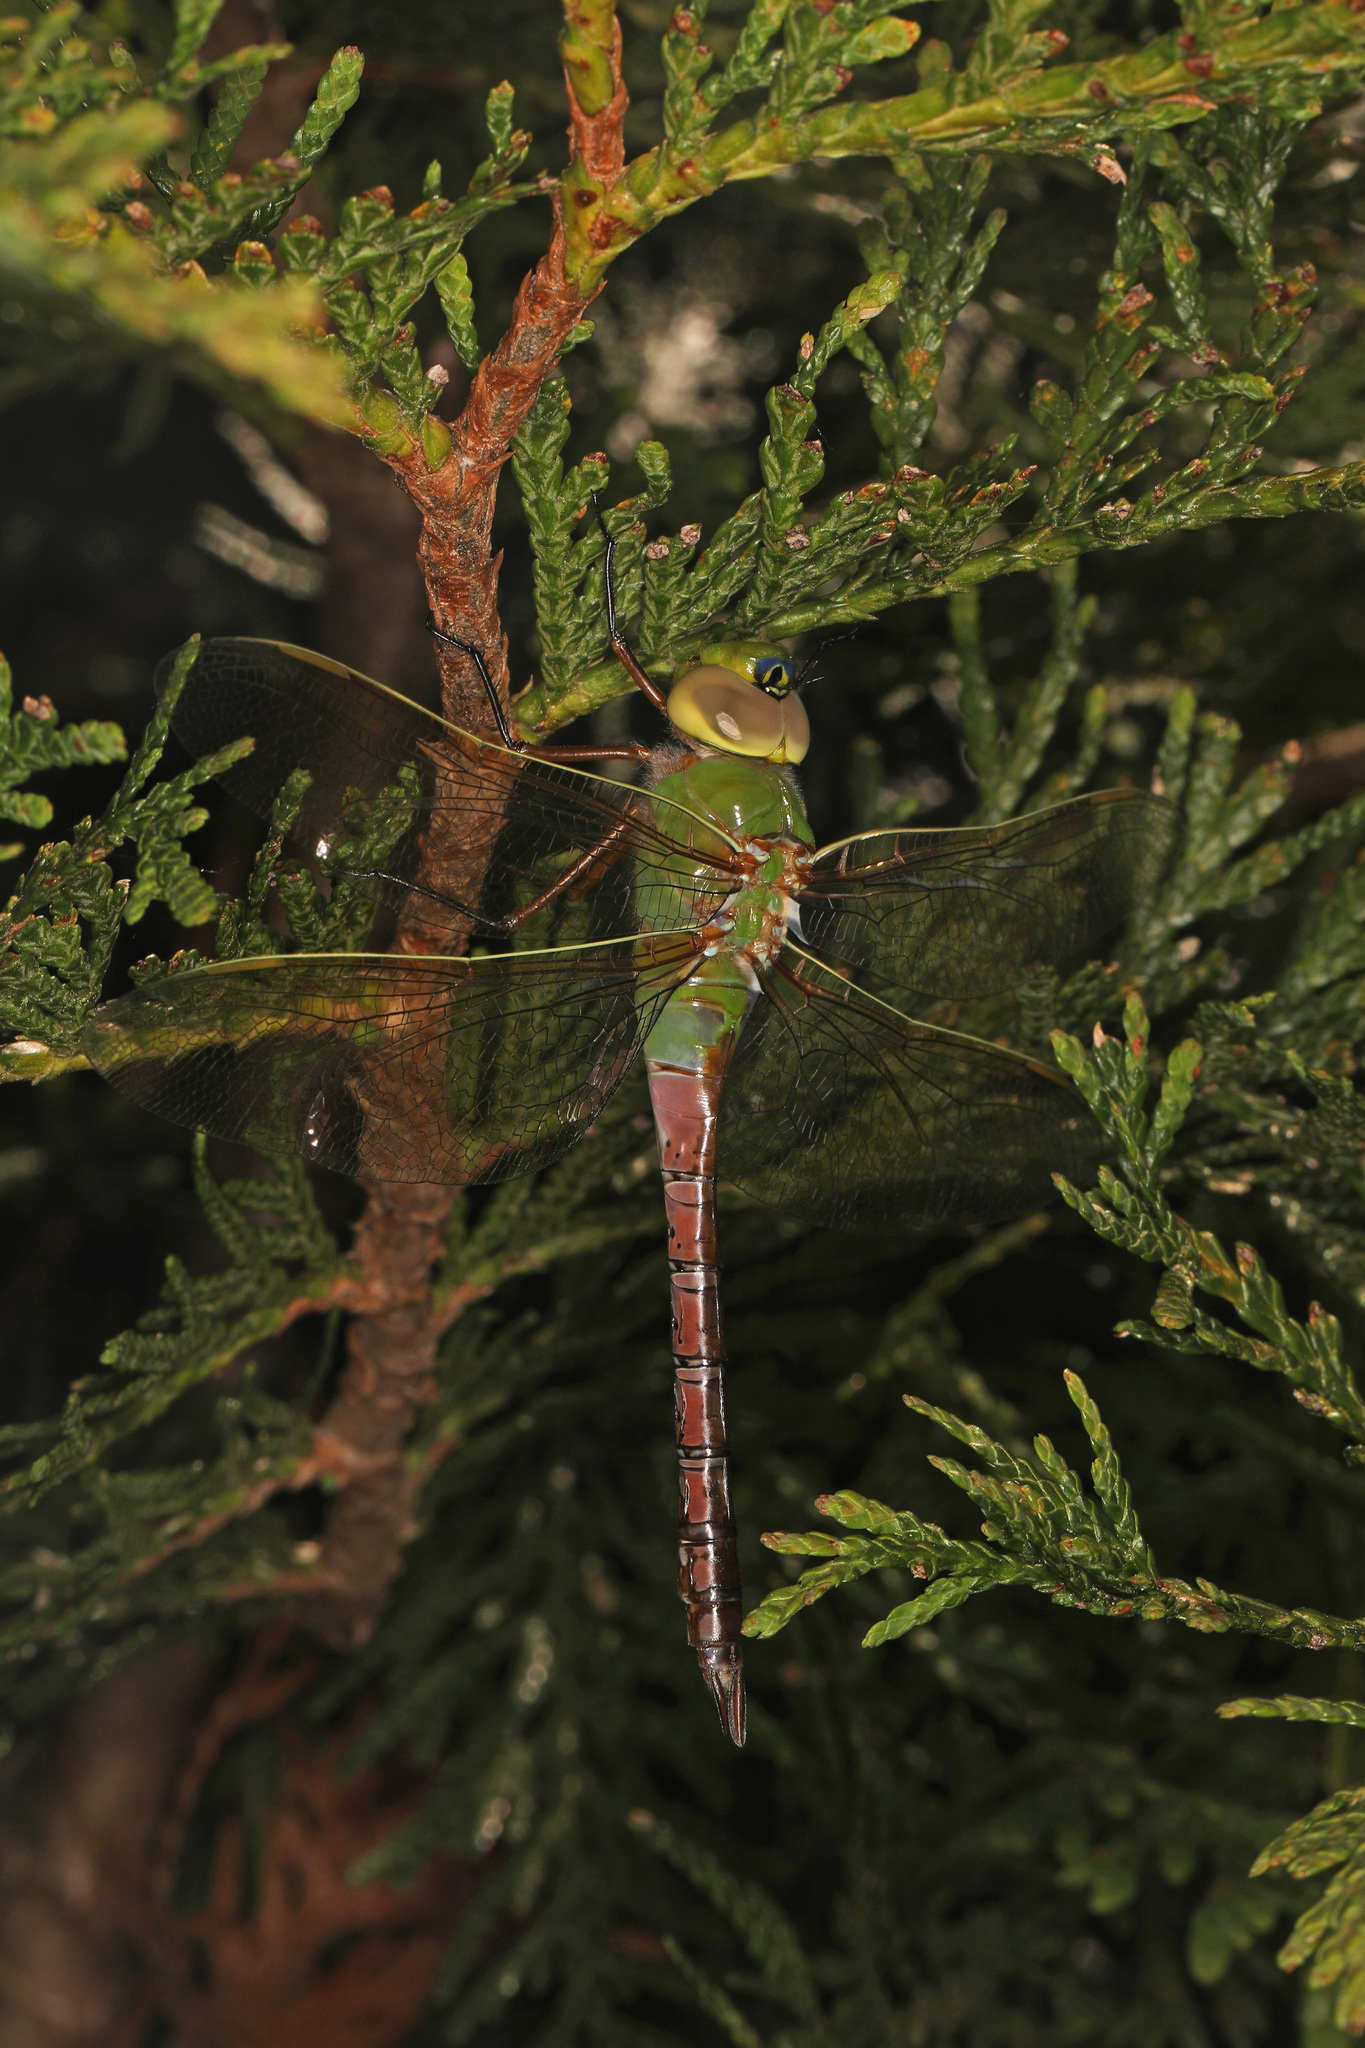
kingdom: Animalia
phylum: Arthropoda
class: Insecta
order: Odonata
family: Aeshnidae
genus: Anax
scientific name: Anax junius
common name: Common green darner
